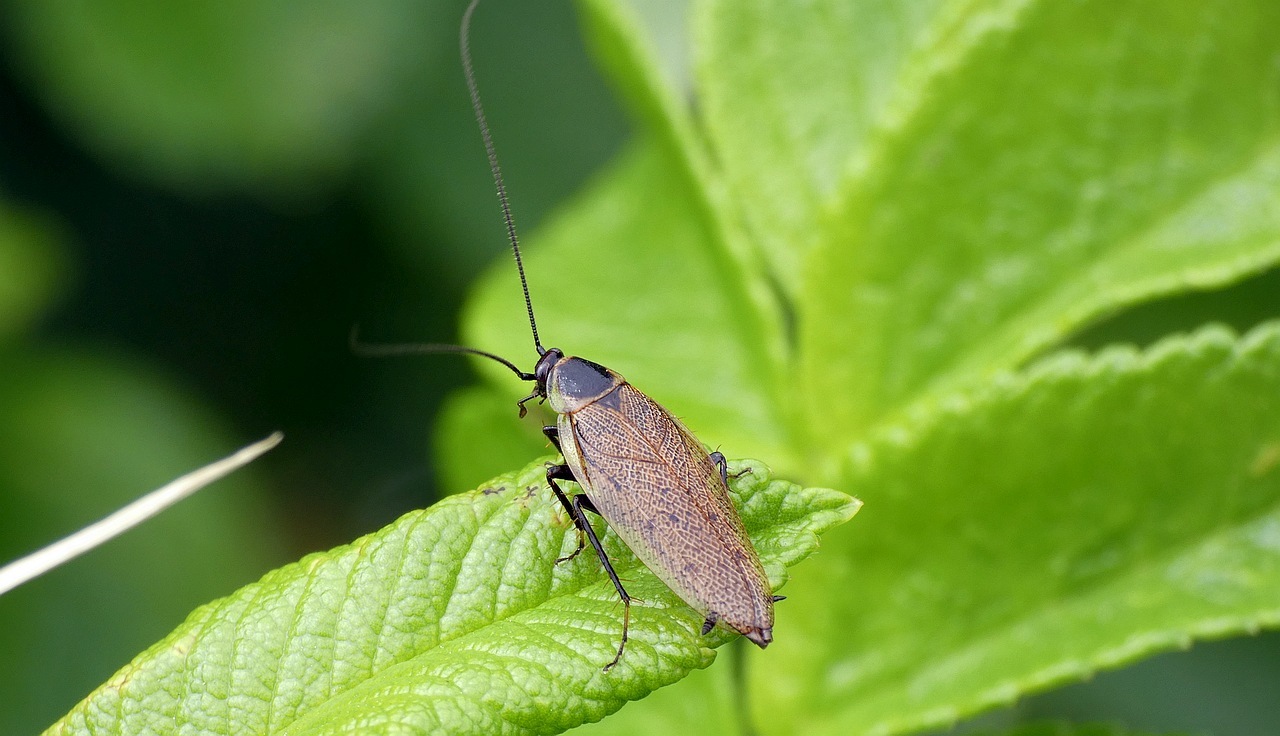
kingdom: Animalia
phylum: Arthropoda
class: Insecta
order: Blattodea
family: Ectobiidae
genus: Ectobius
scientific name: Ectobius lapponicus
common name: Dusky cockroach
